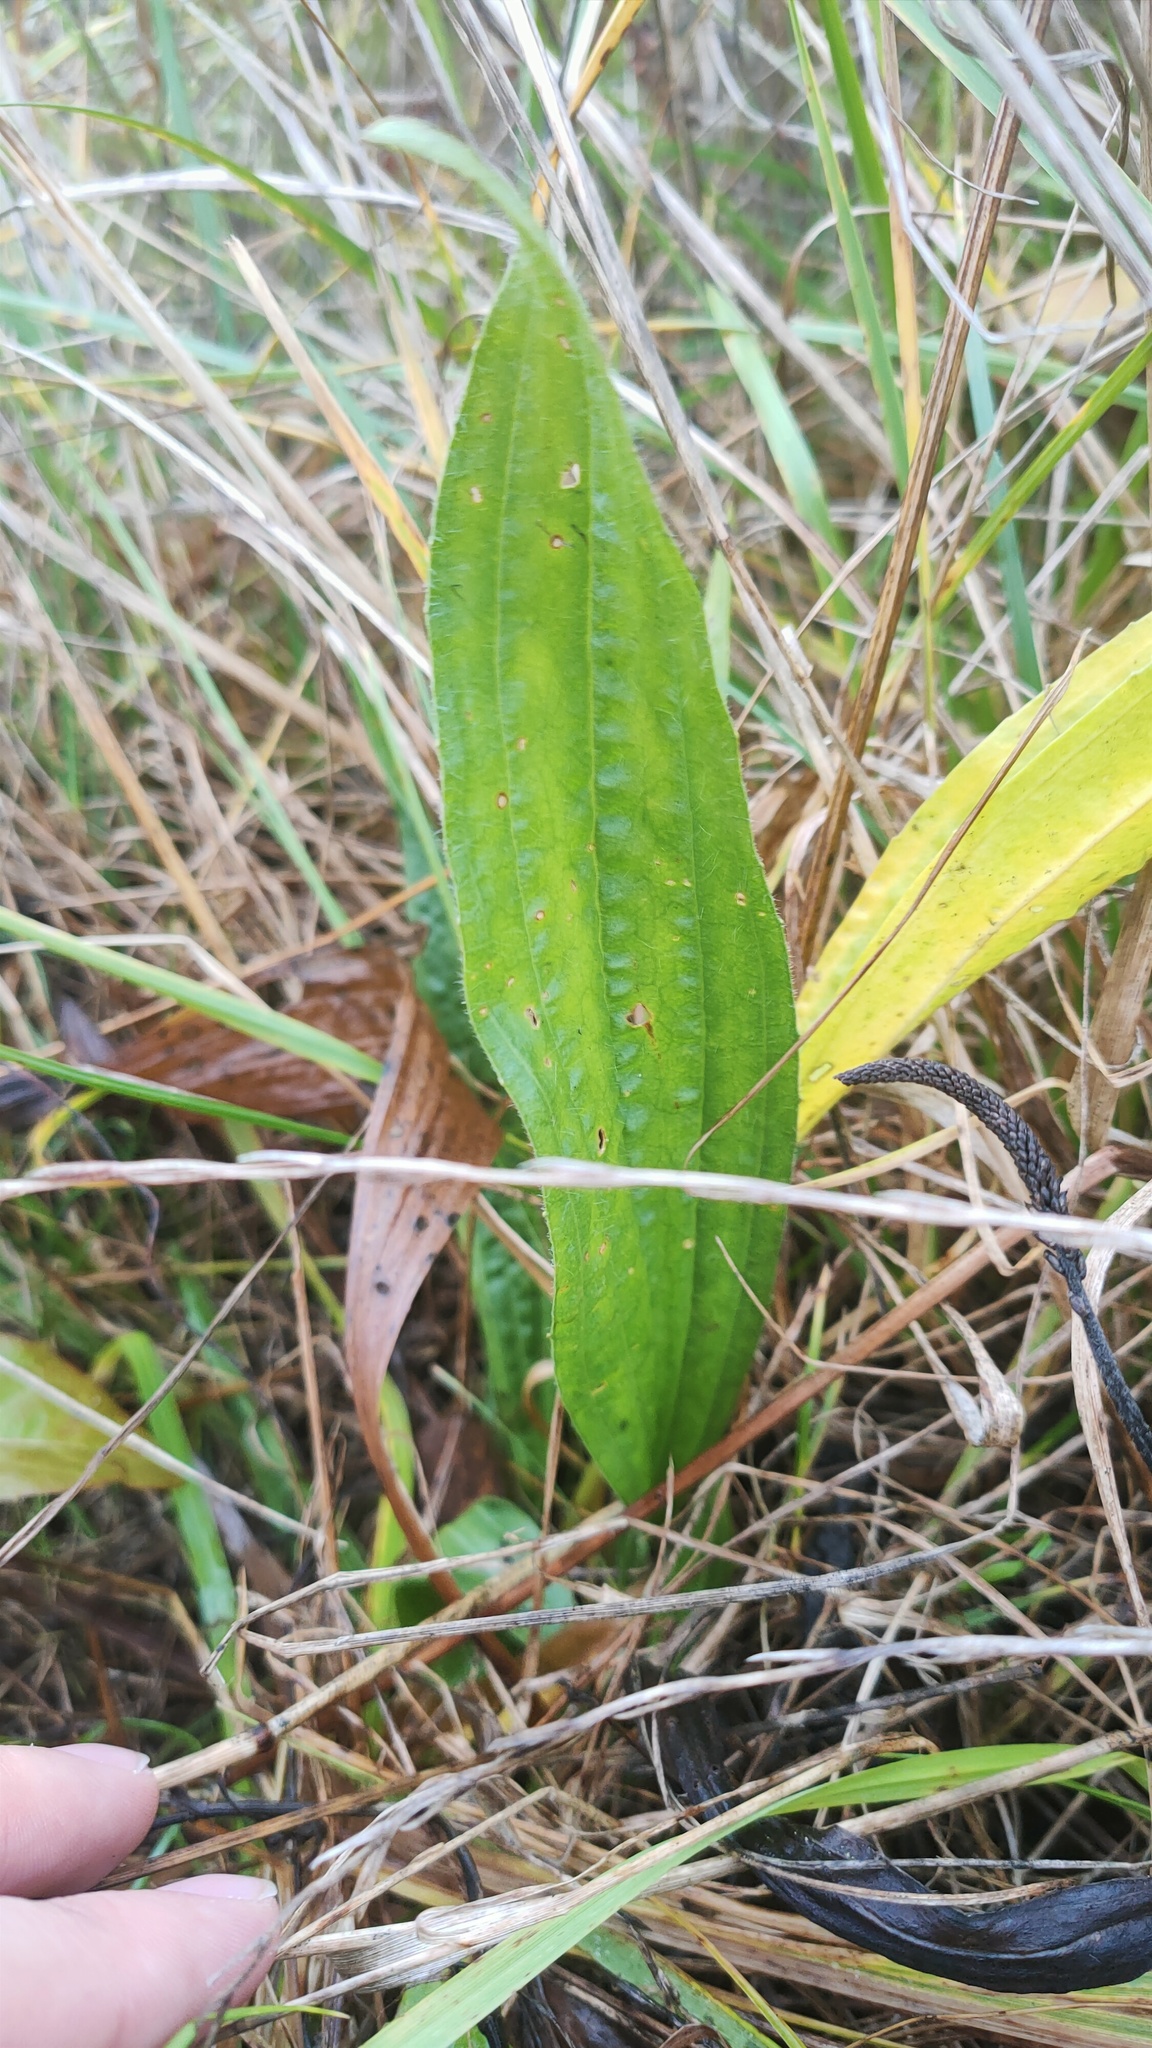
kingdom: Plantae
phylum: Tracheophyta
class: Magnoliopsida
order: Lamiales
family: Plantaginaceae
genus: Plantago
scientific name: Plantago lanceolata
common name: Ribwort plantain
